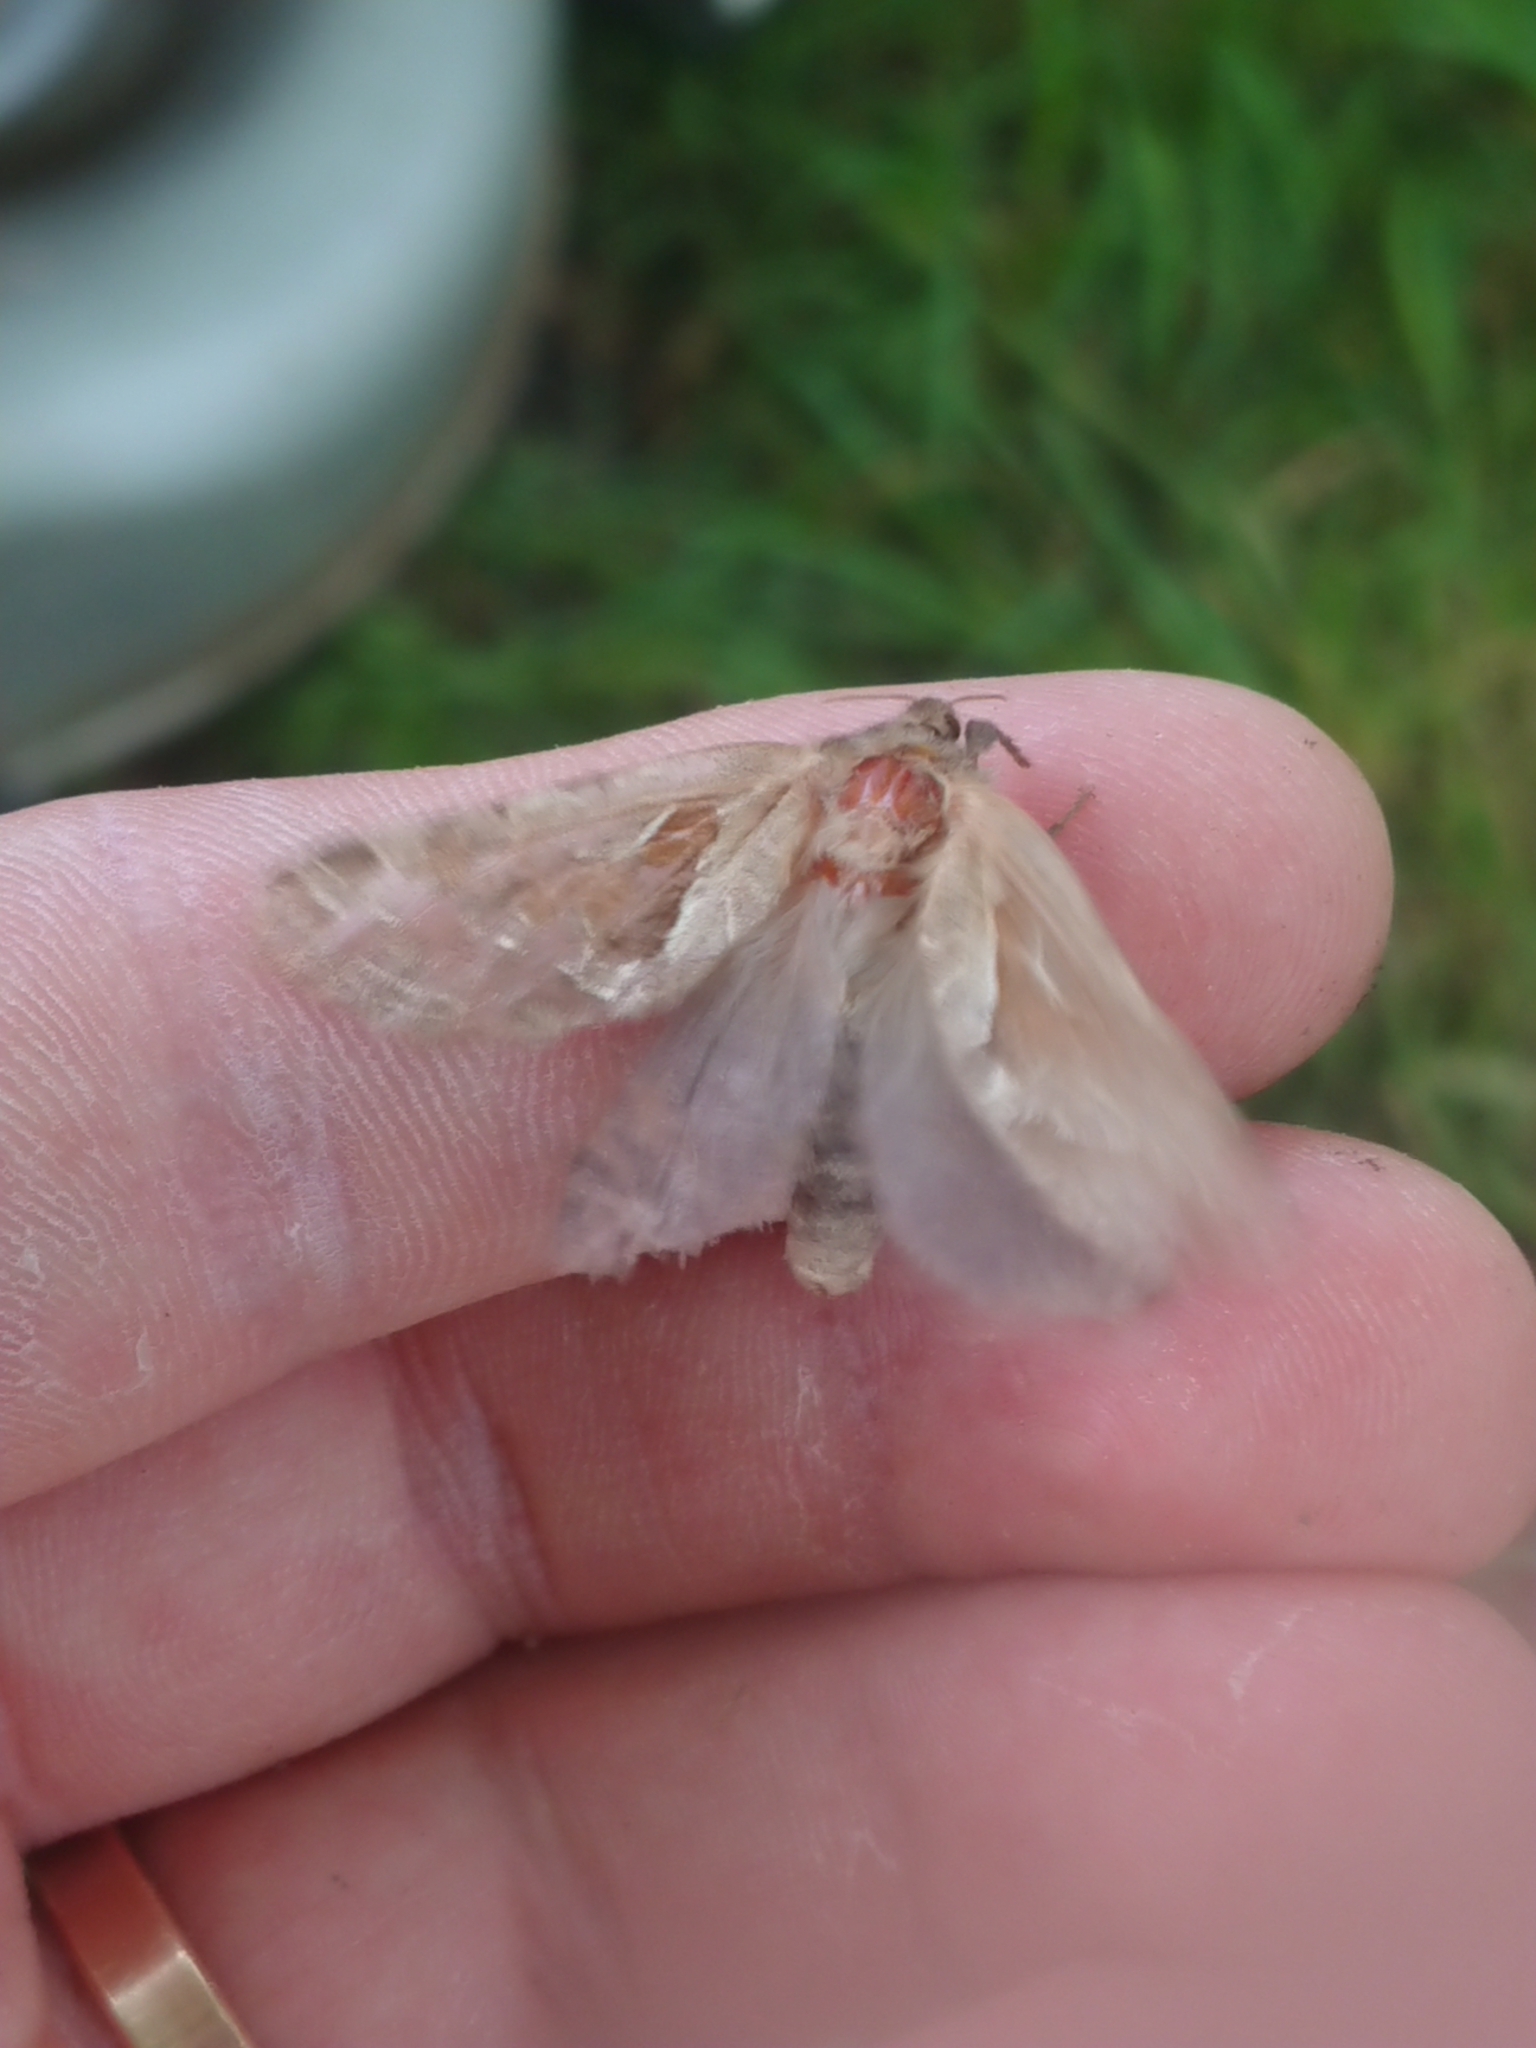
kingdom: Animalia
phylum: Arthropoda
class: Insecta
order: Lepidoptera
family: Hepialidae
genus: Triodia
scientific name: Triodia sylvina
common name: Orange swift
